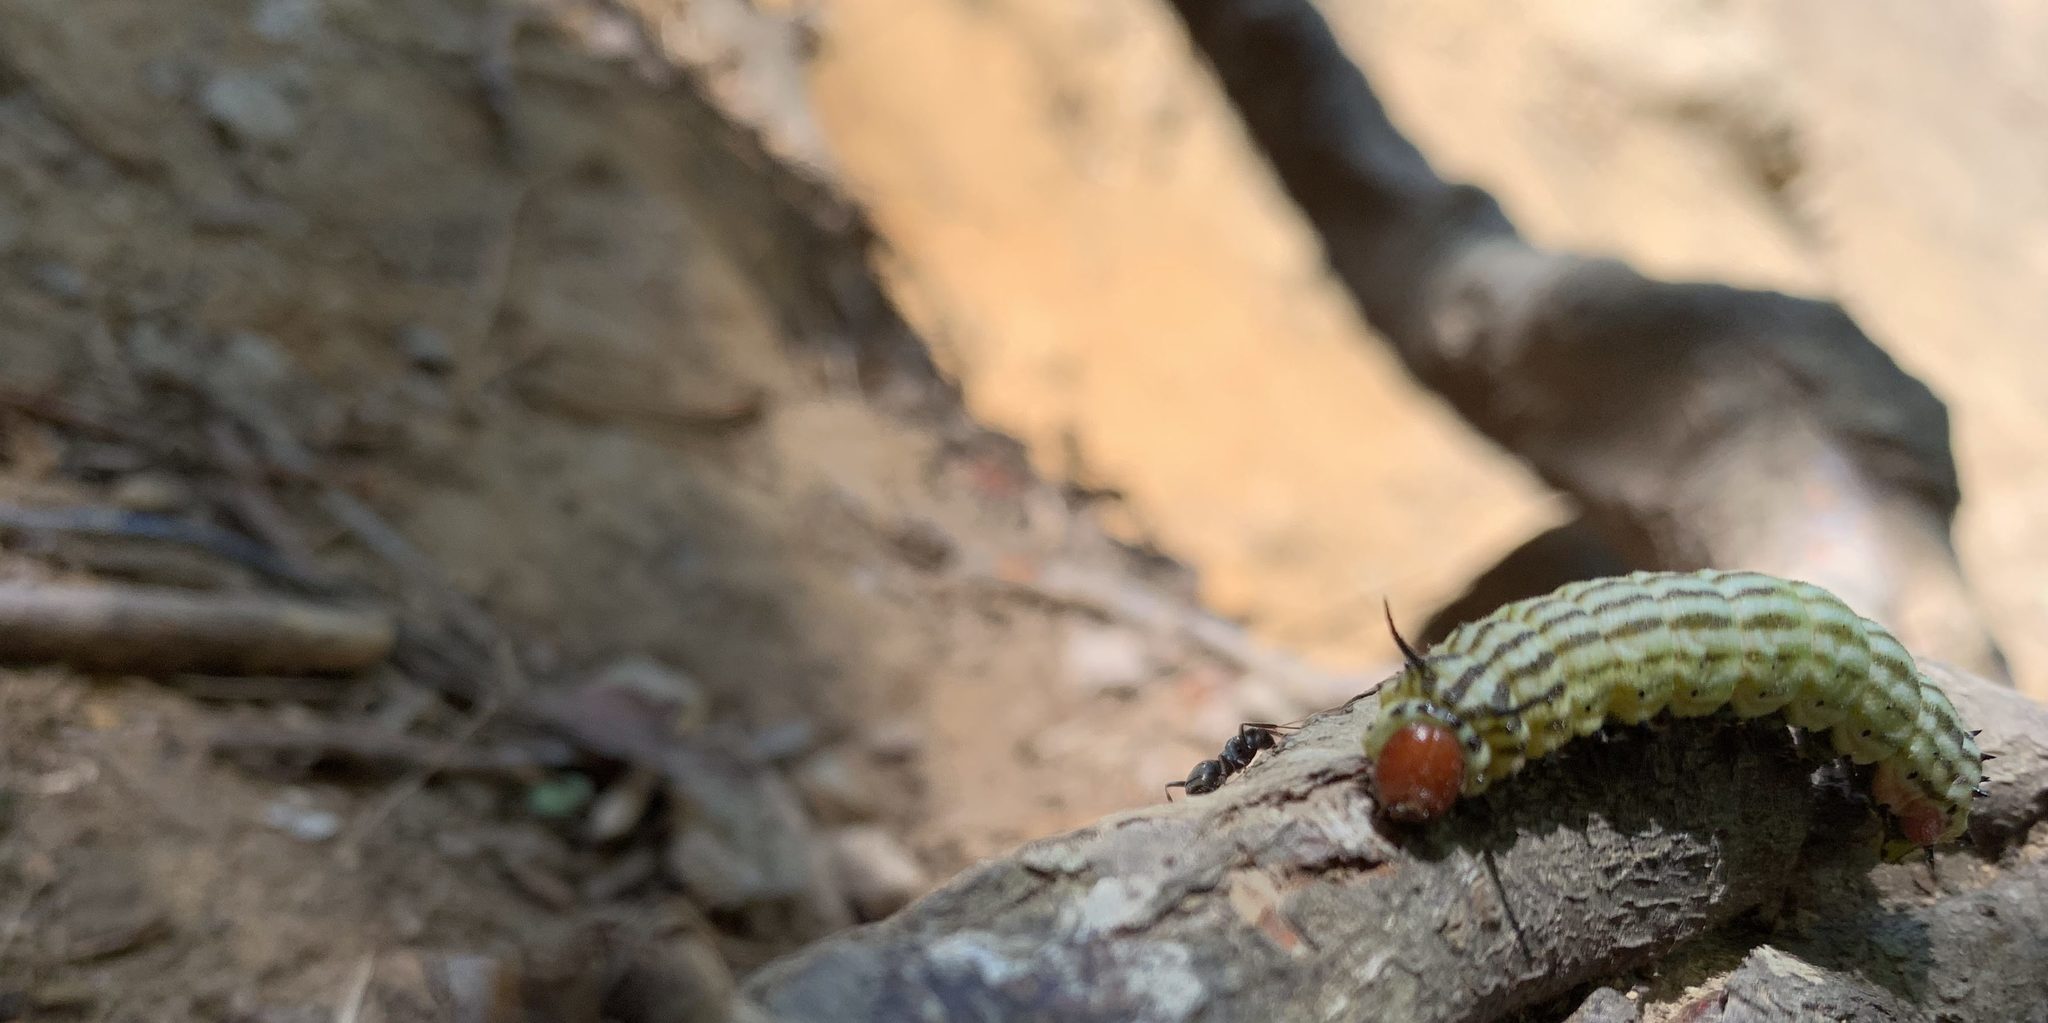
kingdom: Animalia
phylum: Arthropoda
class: Insecta
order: Lepidoptera
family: Saturniidae
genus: Dryocampa
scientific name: Dryocampa rubicunda
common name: Rosy maple moth
